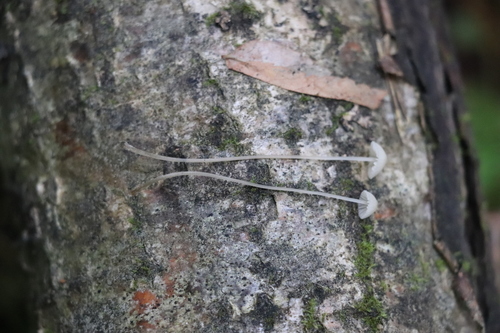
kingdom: Fungi
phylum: Basidiomycota
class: Agaricomycetes
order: Agaricales
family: Mycenaceae
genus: Mycena
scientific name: Mycena mirata
